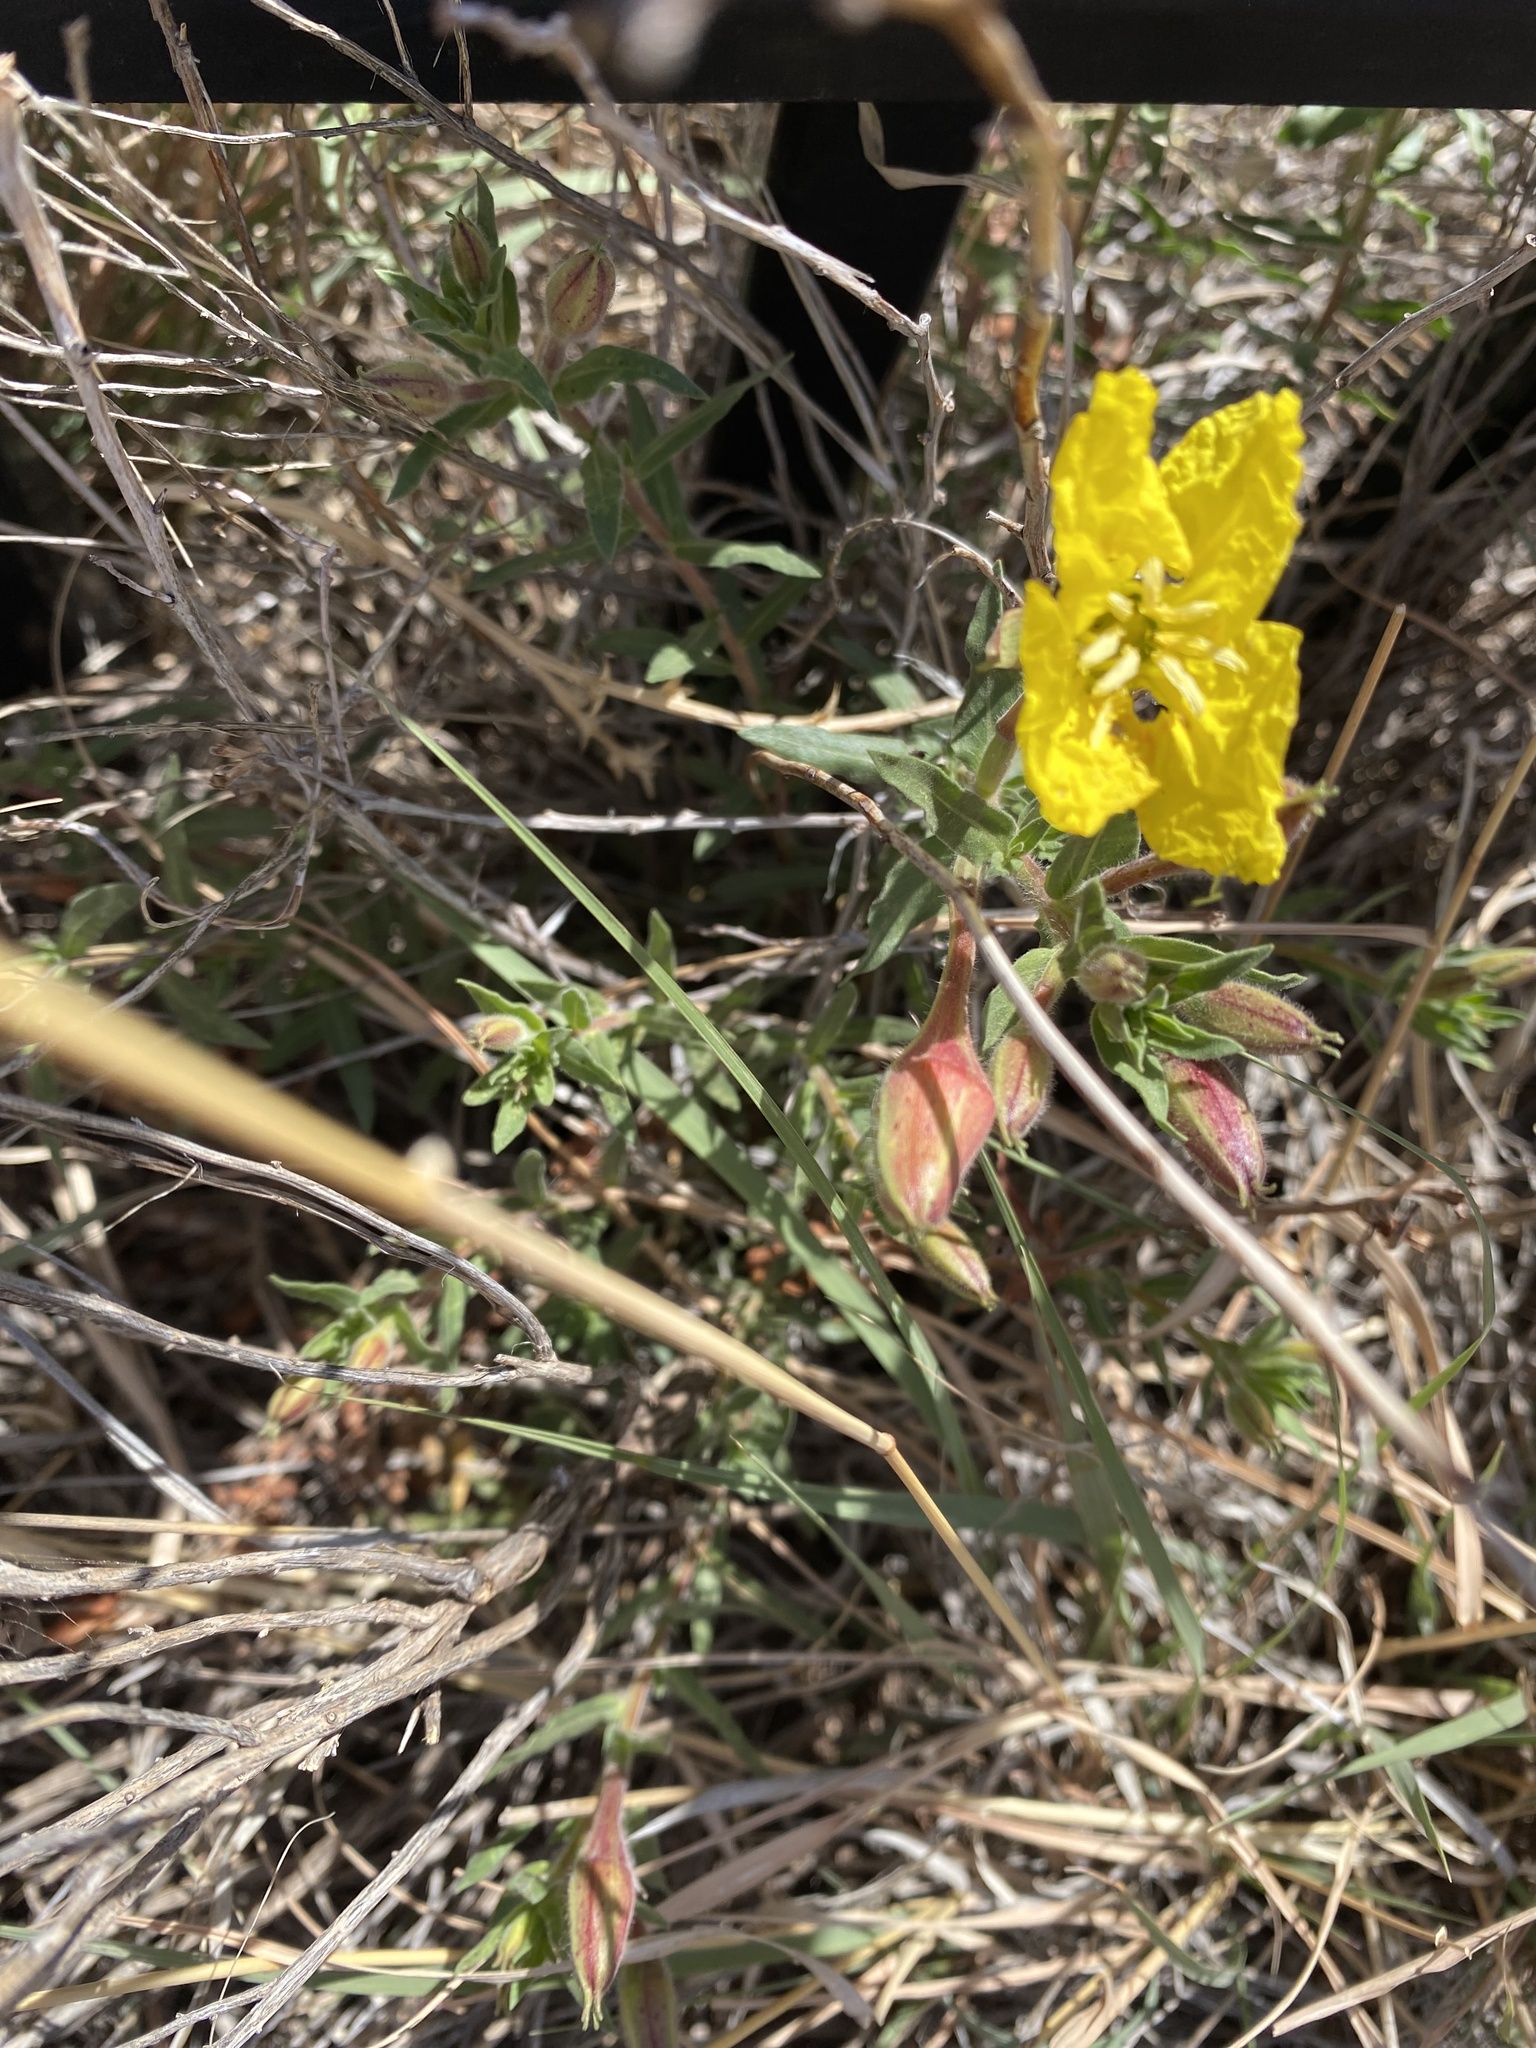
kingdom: Plantae
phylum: Tracheophyta
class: Magnoliopsida
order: Myrtales
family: Onagraceae
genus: Oenothera
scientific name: Oenothera hartwegii
